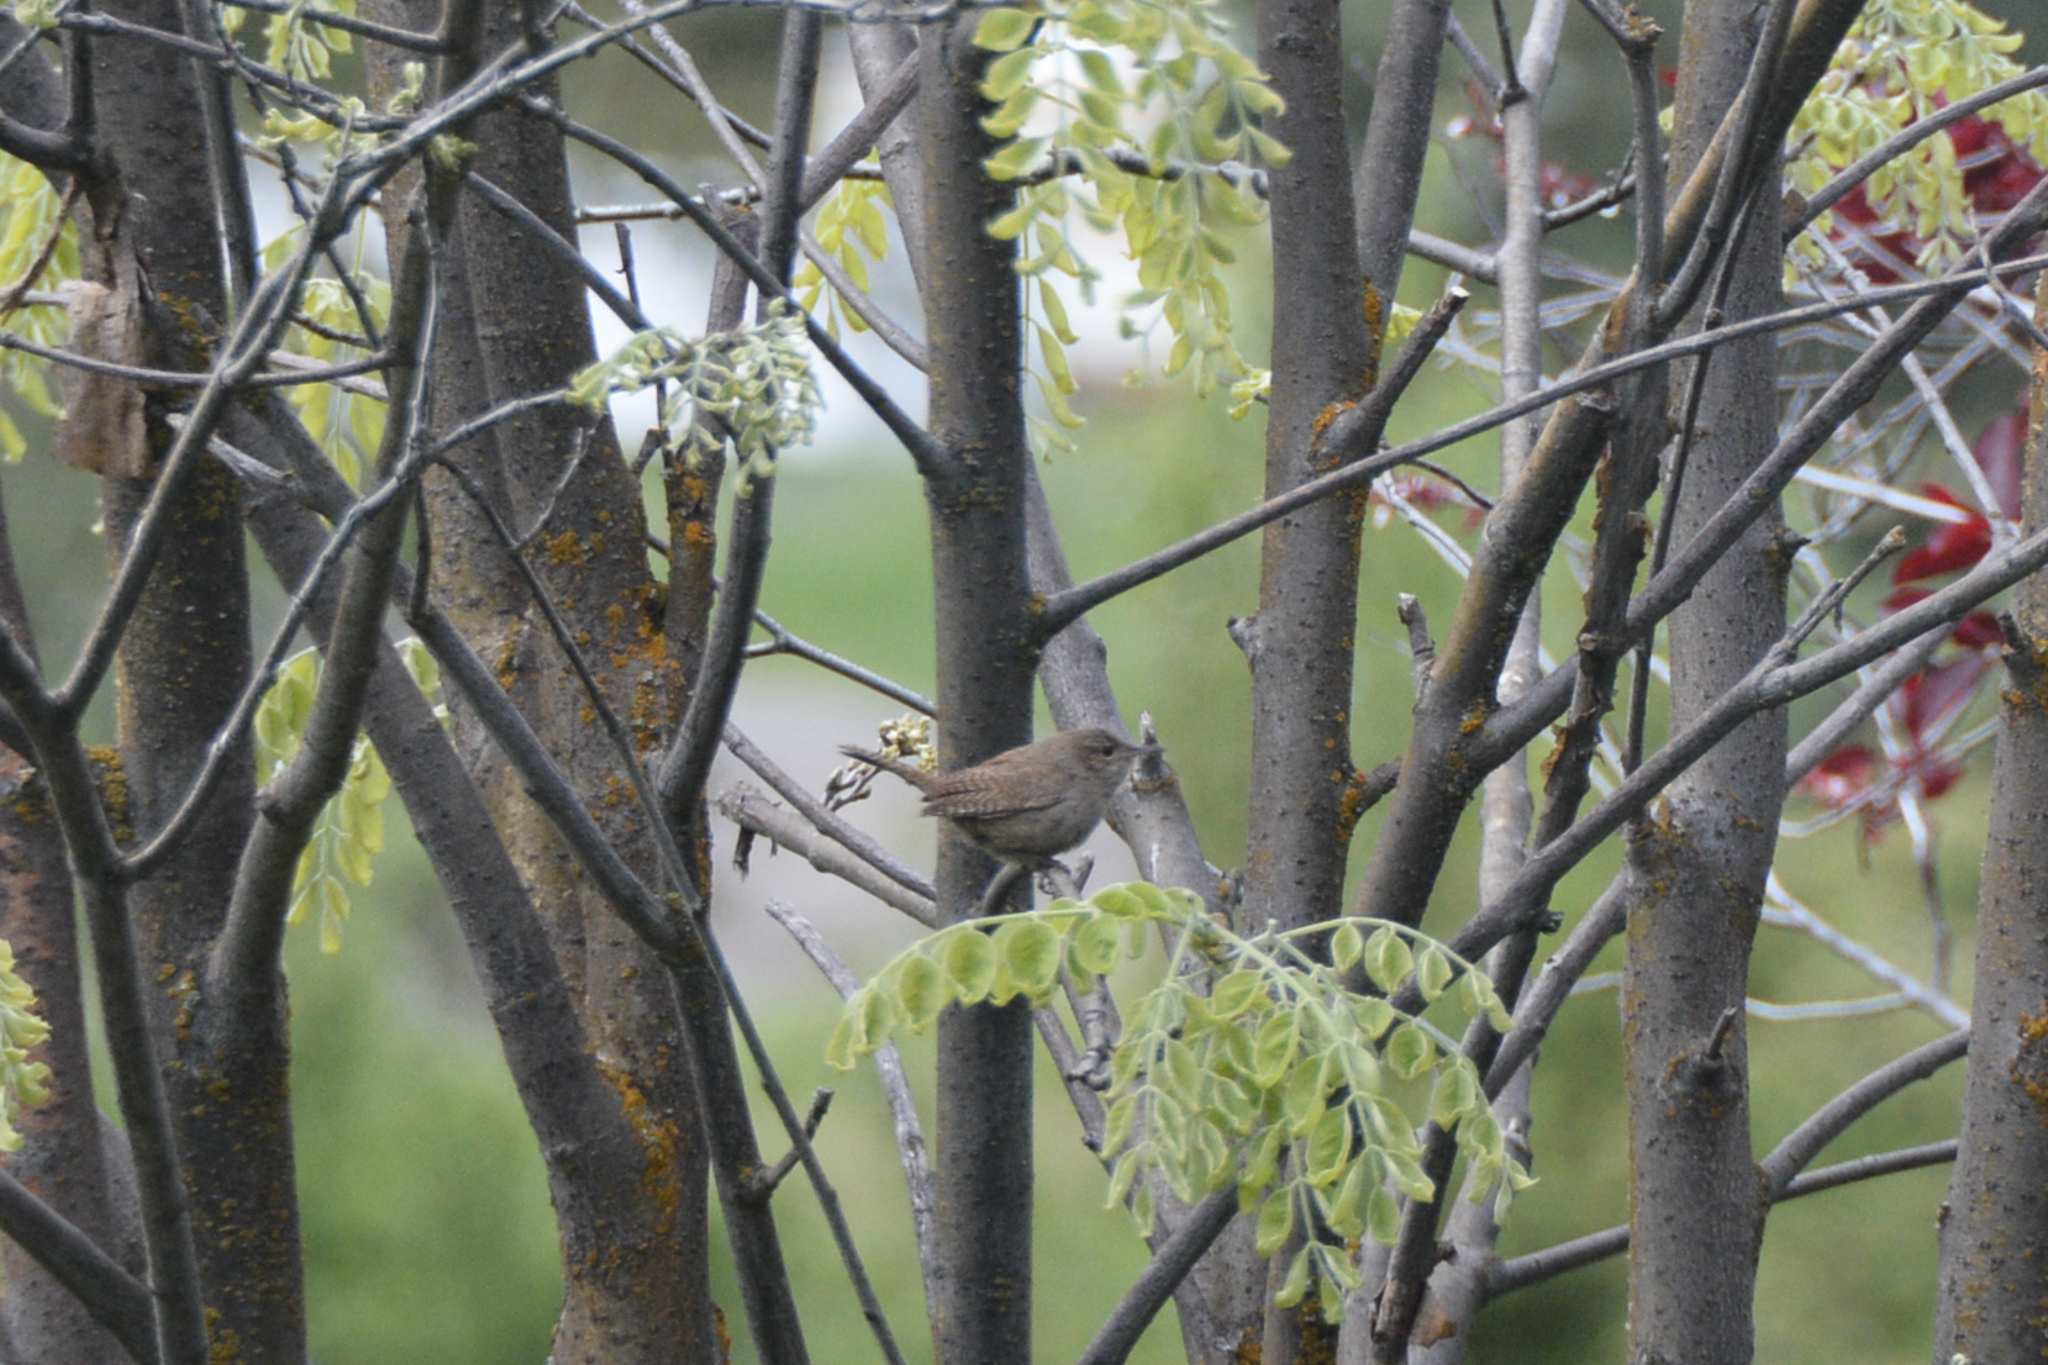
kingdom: Animalia
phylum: Chordata
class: Aves
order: Passeriformes
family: Troglodytidae
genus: Troglodytes
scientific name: Troglodytes aedon
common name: House wren
